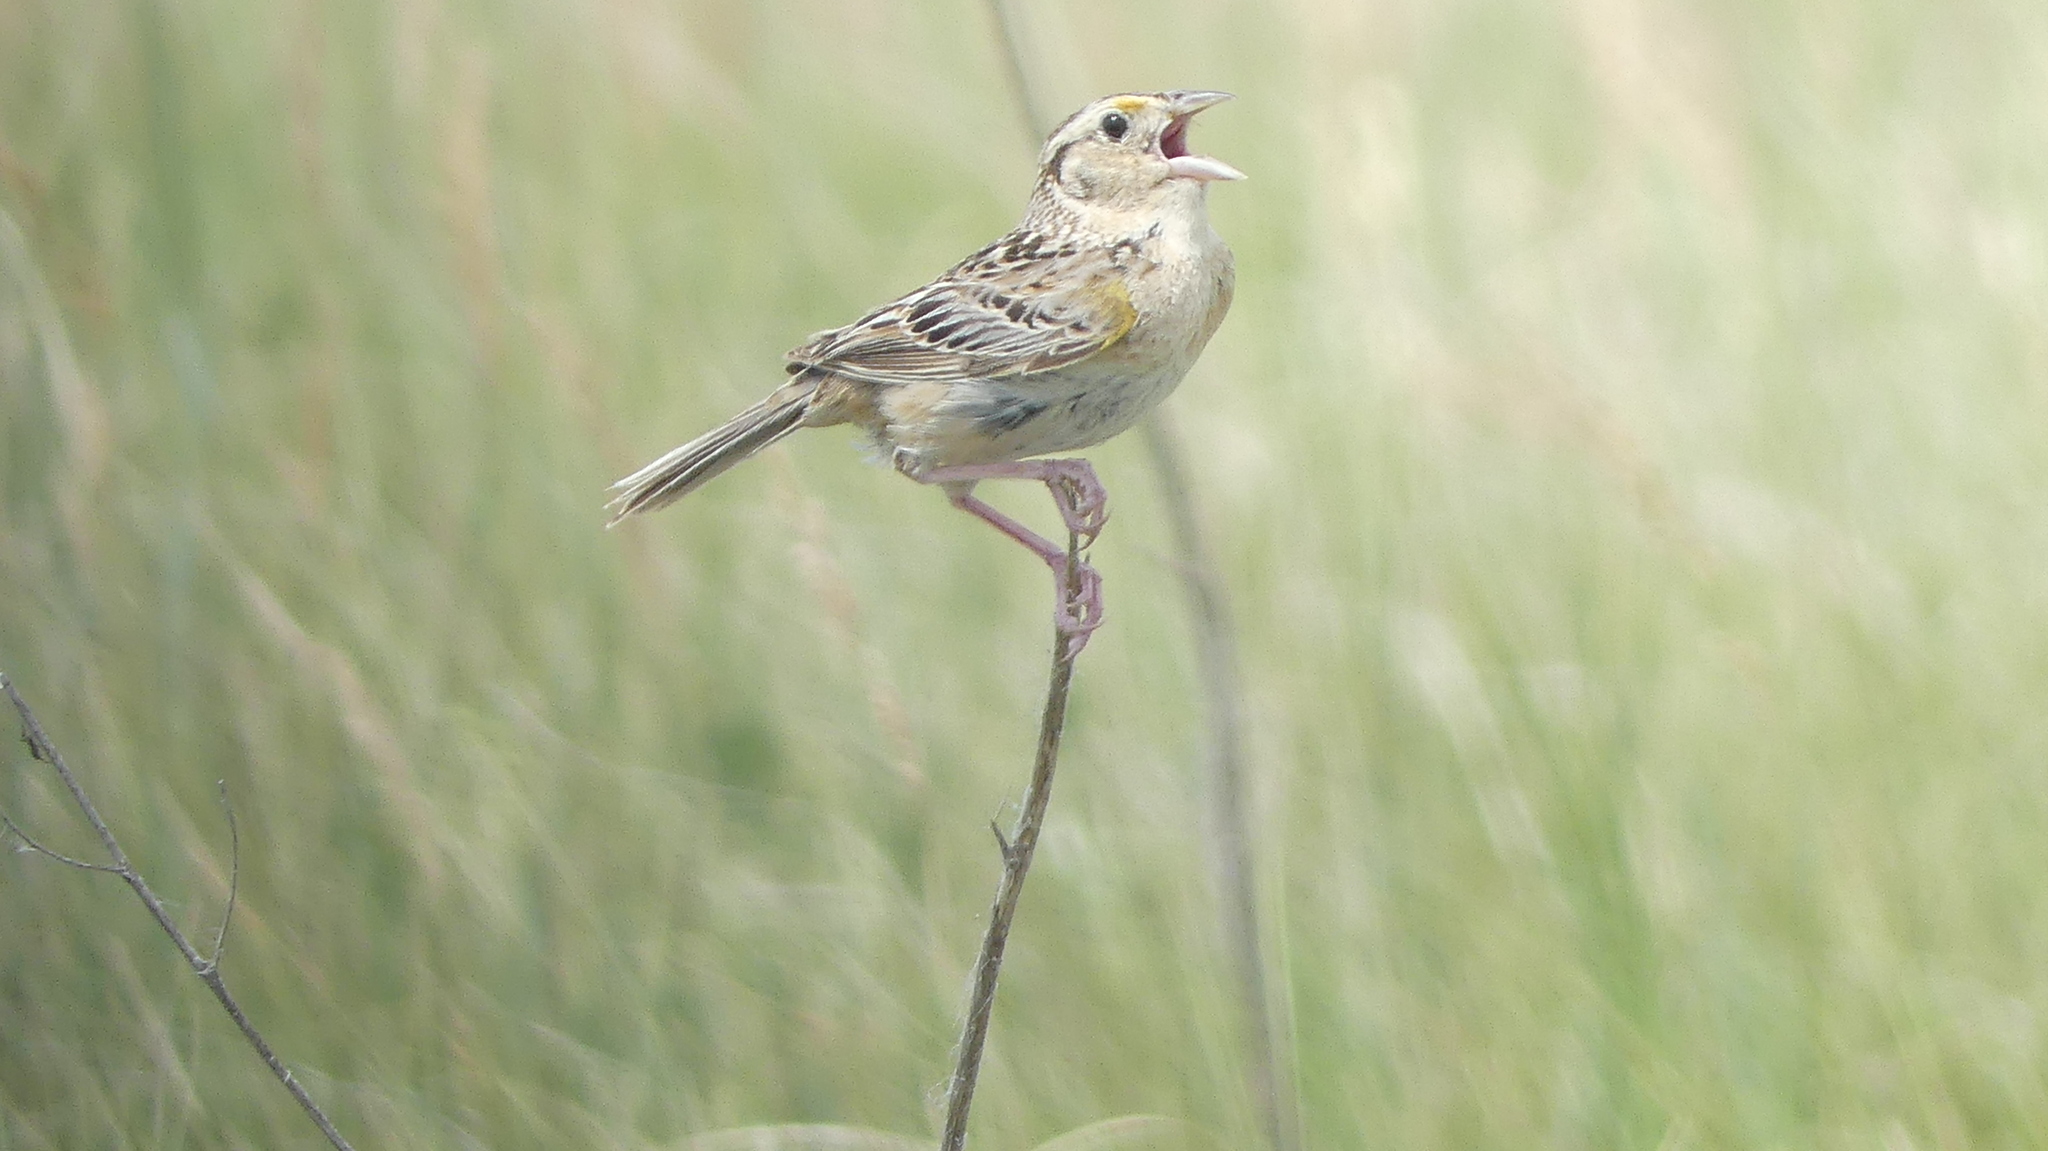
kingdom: Animalia
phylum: Chordata
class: Aves
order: Passeriformes
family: Passerellidae
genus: Ammodramus
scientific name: Ammodramus savannarum
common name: Grasshopper sparrow
